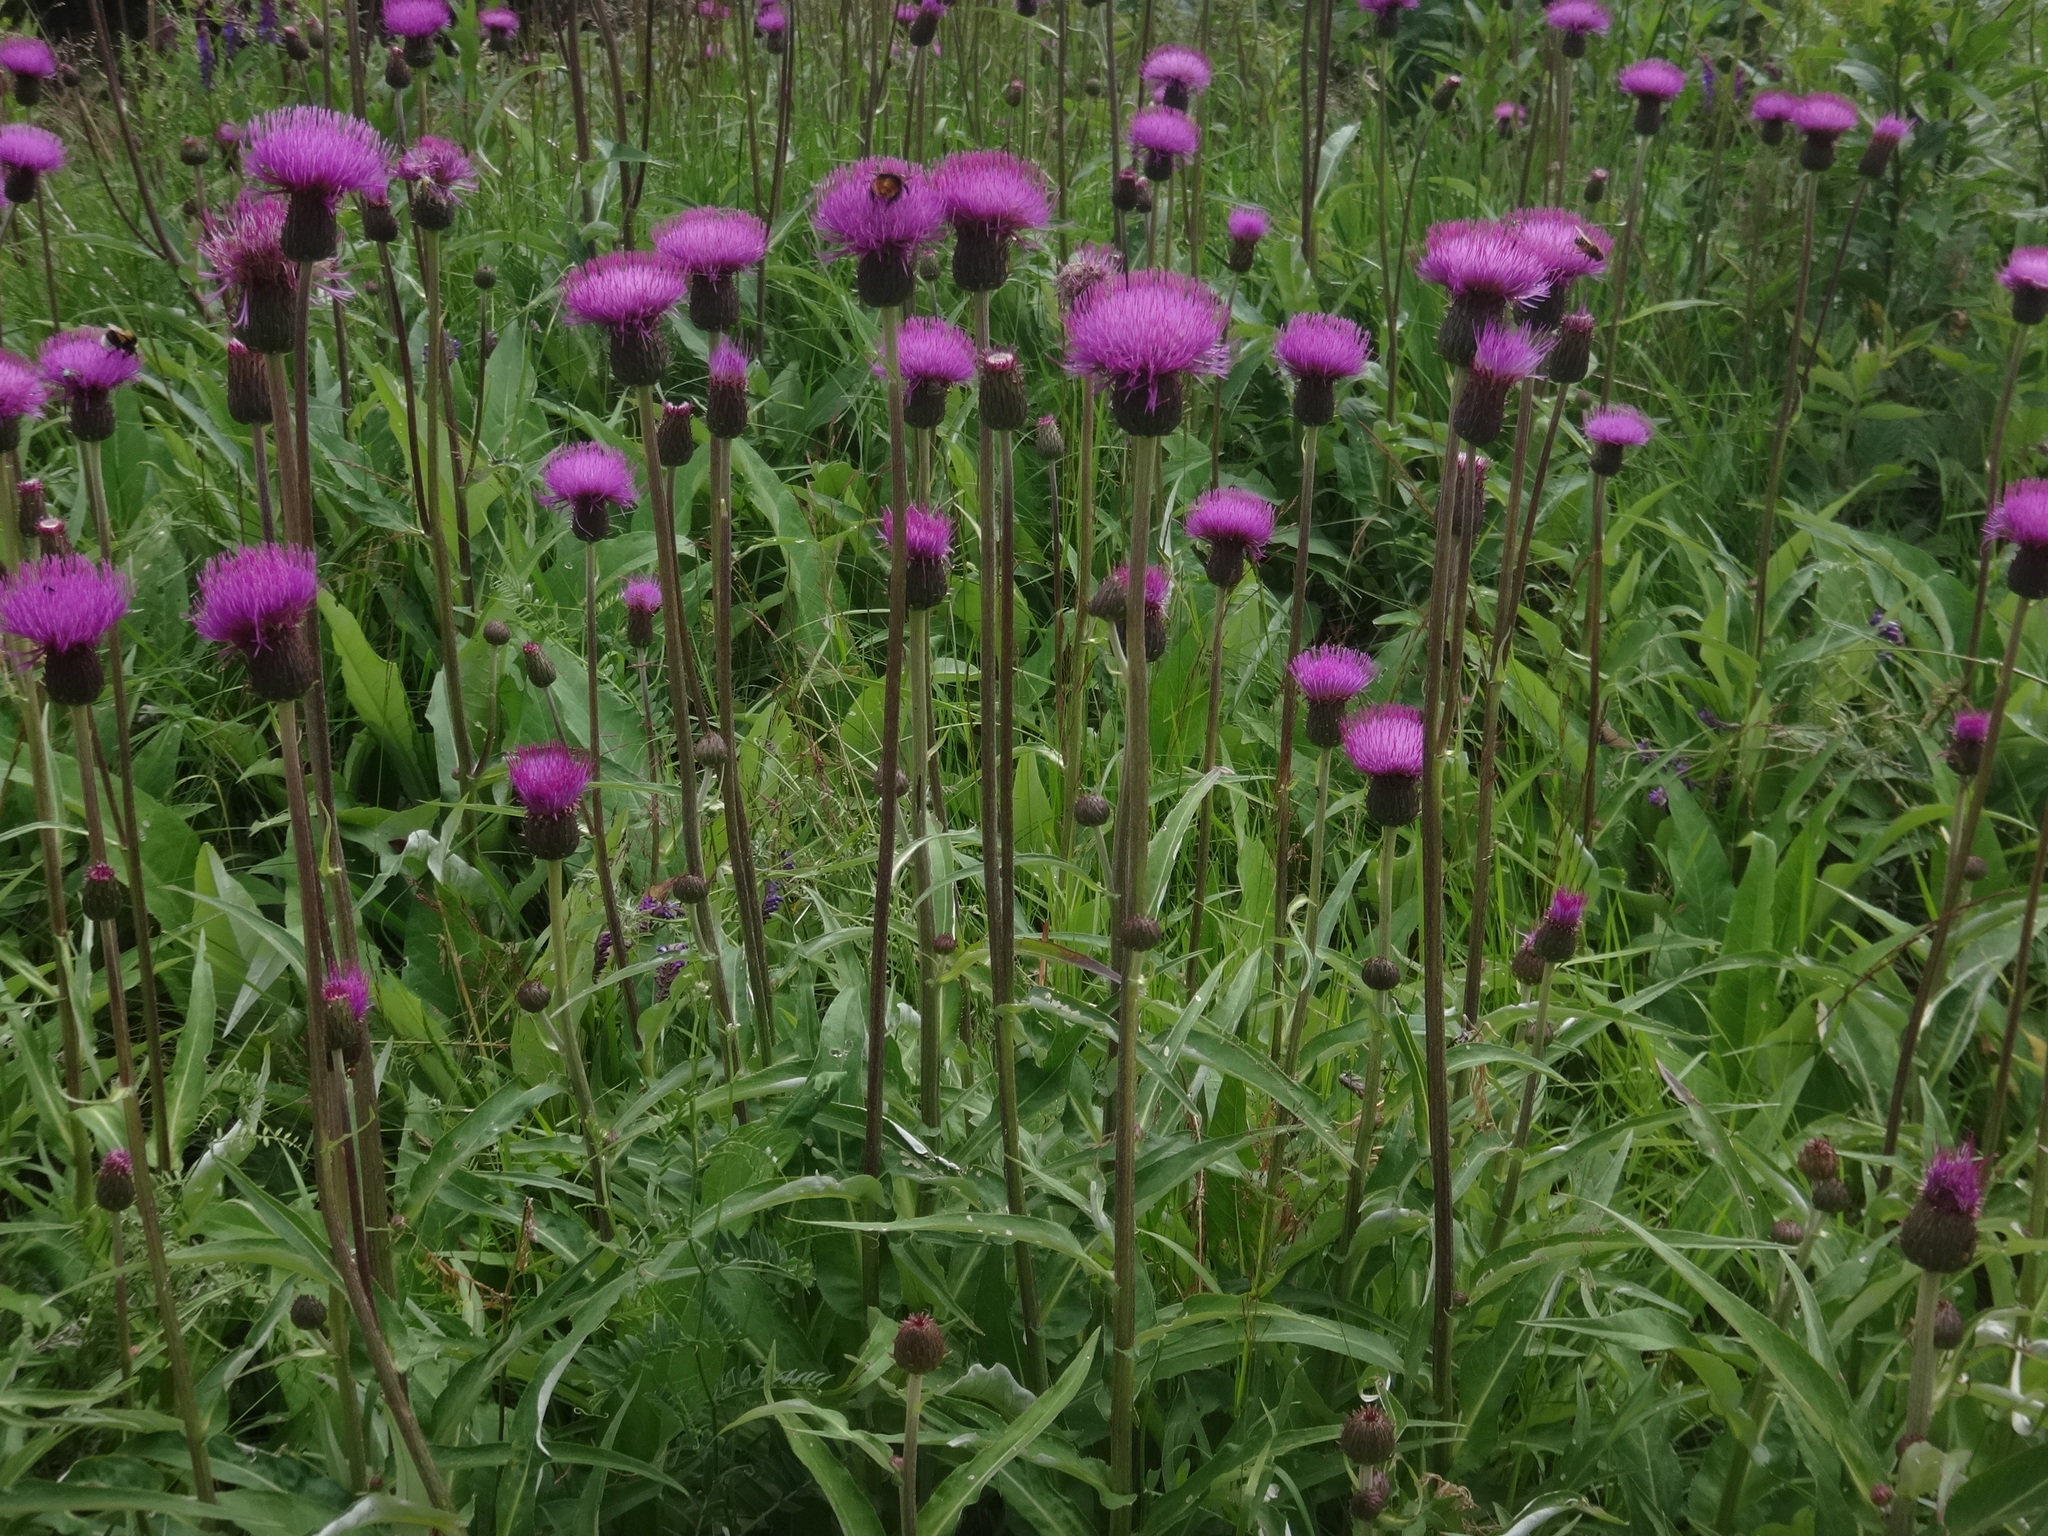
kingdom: Plantae
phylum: Tracheophyta
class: Magnoliopsida
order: Asterales
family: Asteraceae
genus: Cirsium
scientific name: Cirsium heterophyllum
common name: Melancholy thistle
